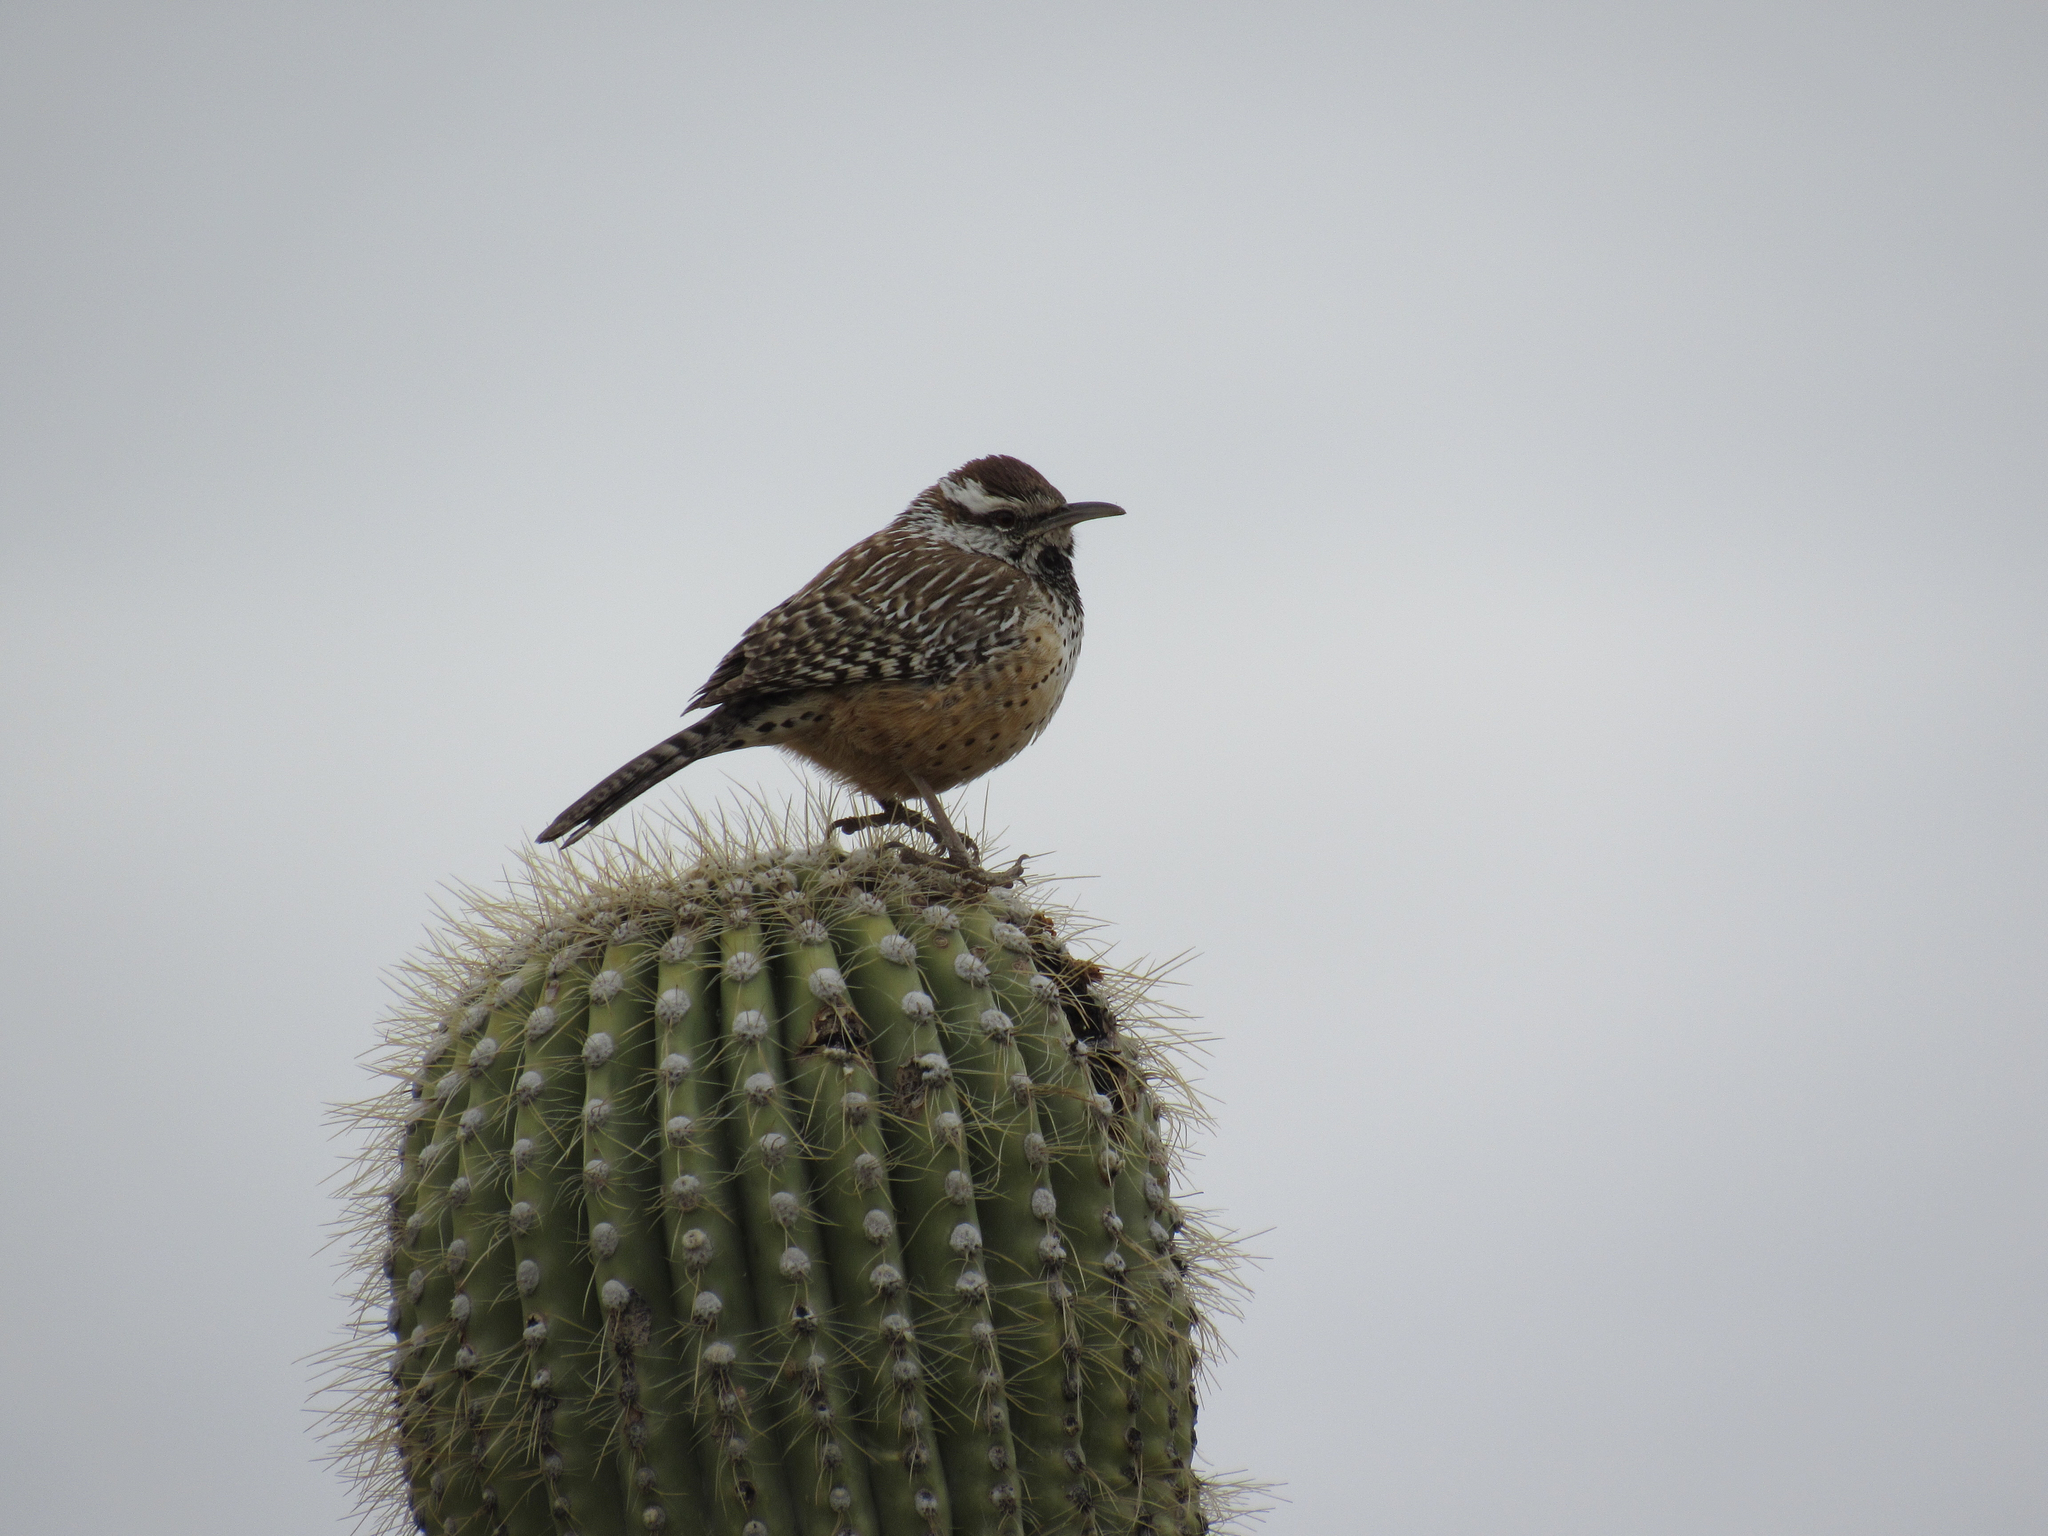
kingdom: Animalia
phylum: Chordata
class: Aves
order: Passeriformes
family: Troglodytidae
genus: Campylorhynchus
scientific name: Campylorhynchus brunneicapillus
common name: Cactus wren
